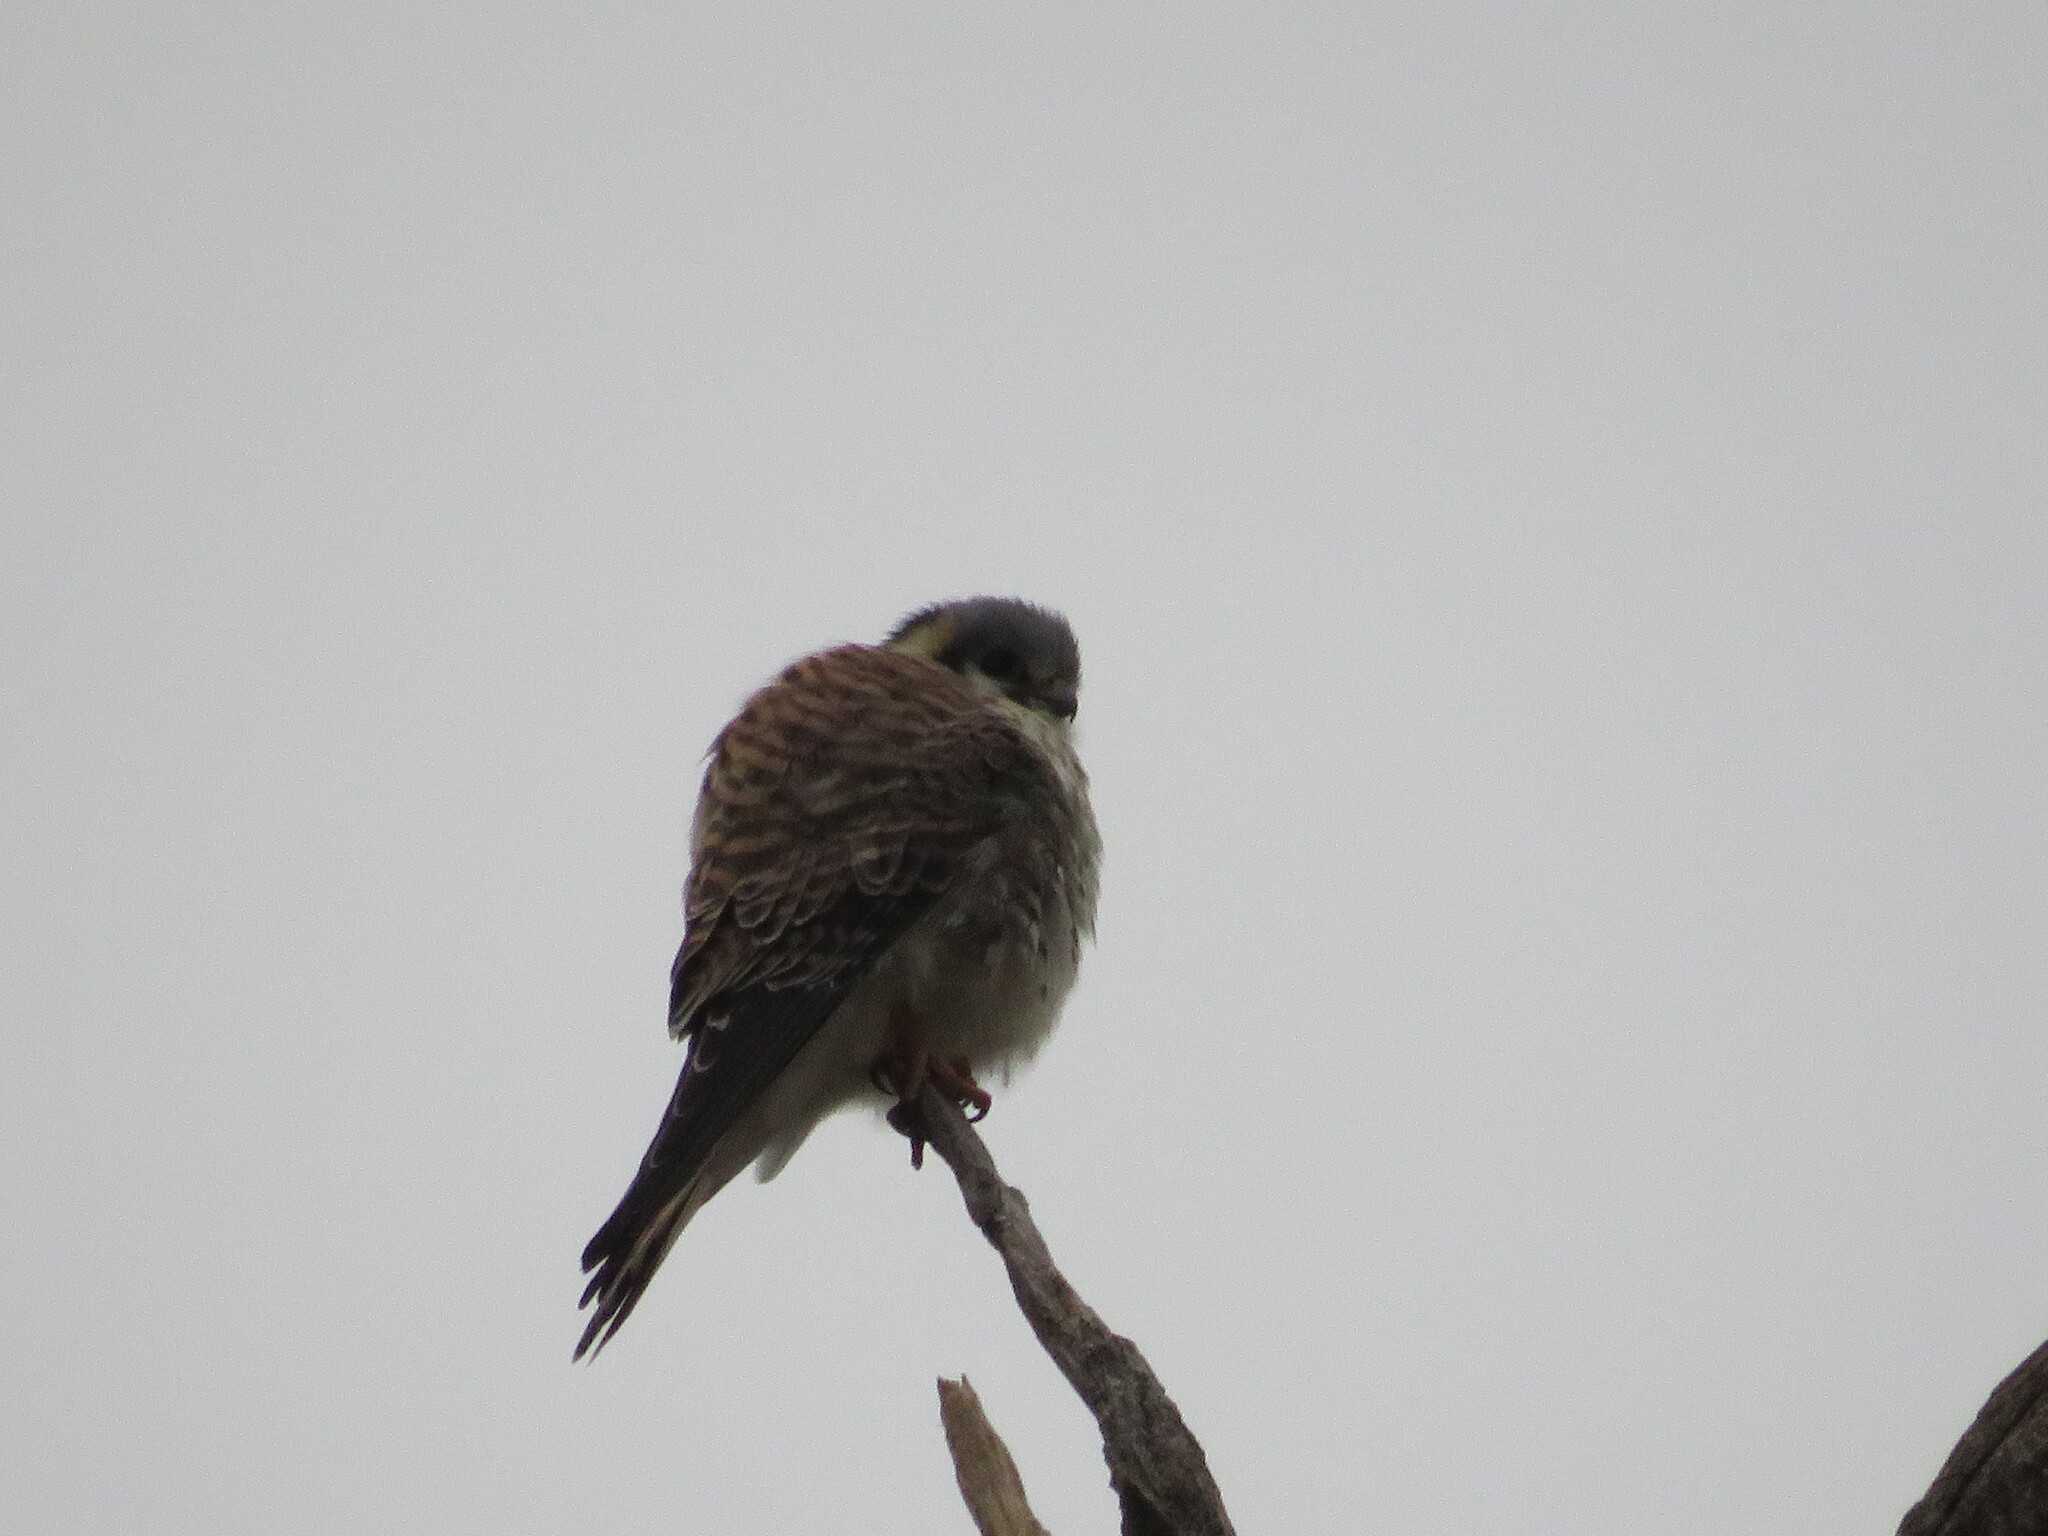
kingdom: Animalia
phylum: Chordata
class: Aves
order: Falconiformes
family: Falconidae
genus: Falco
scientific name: Falco sparverius
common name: American kestrel
